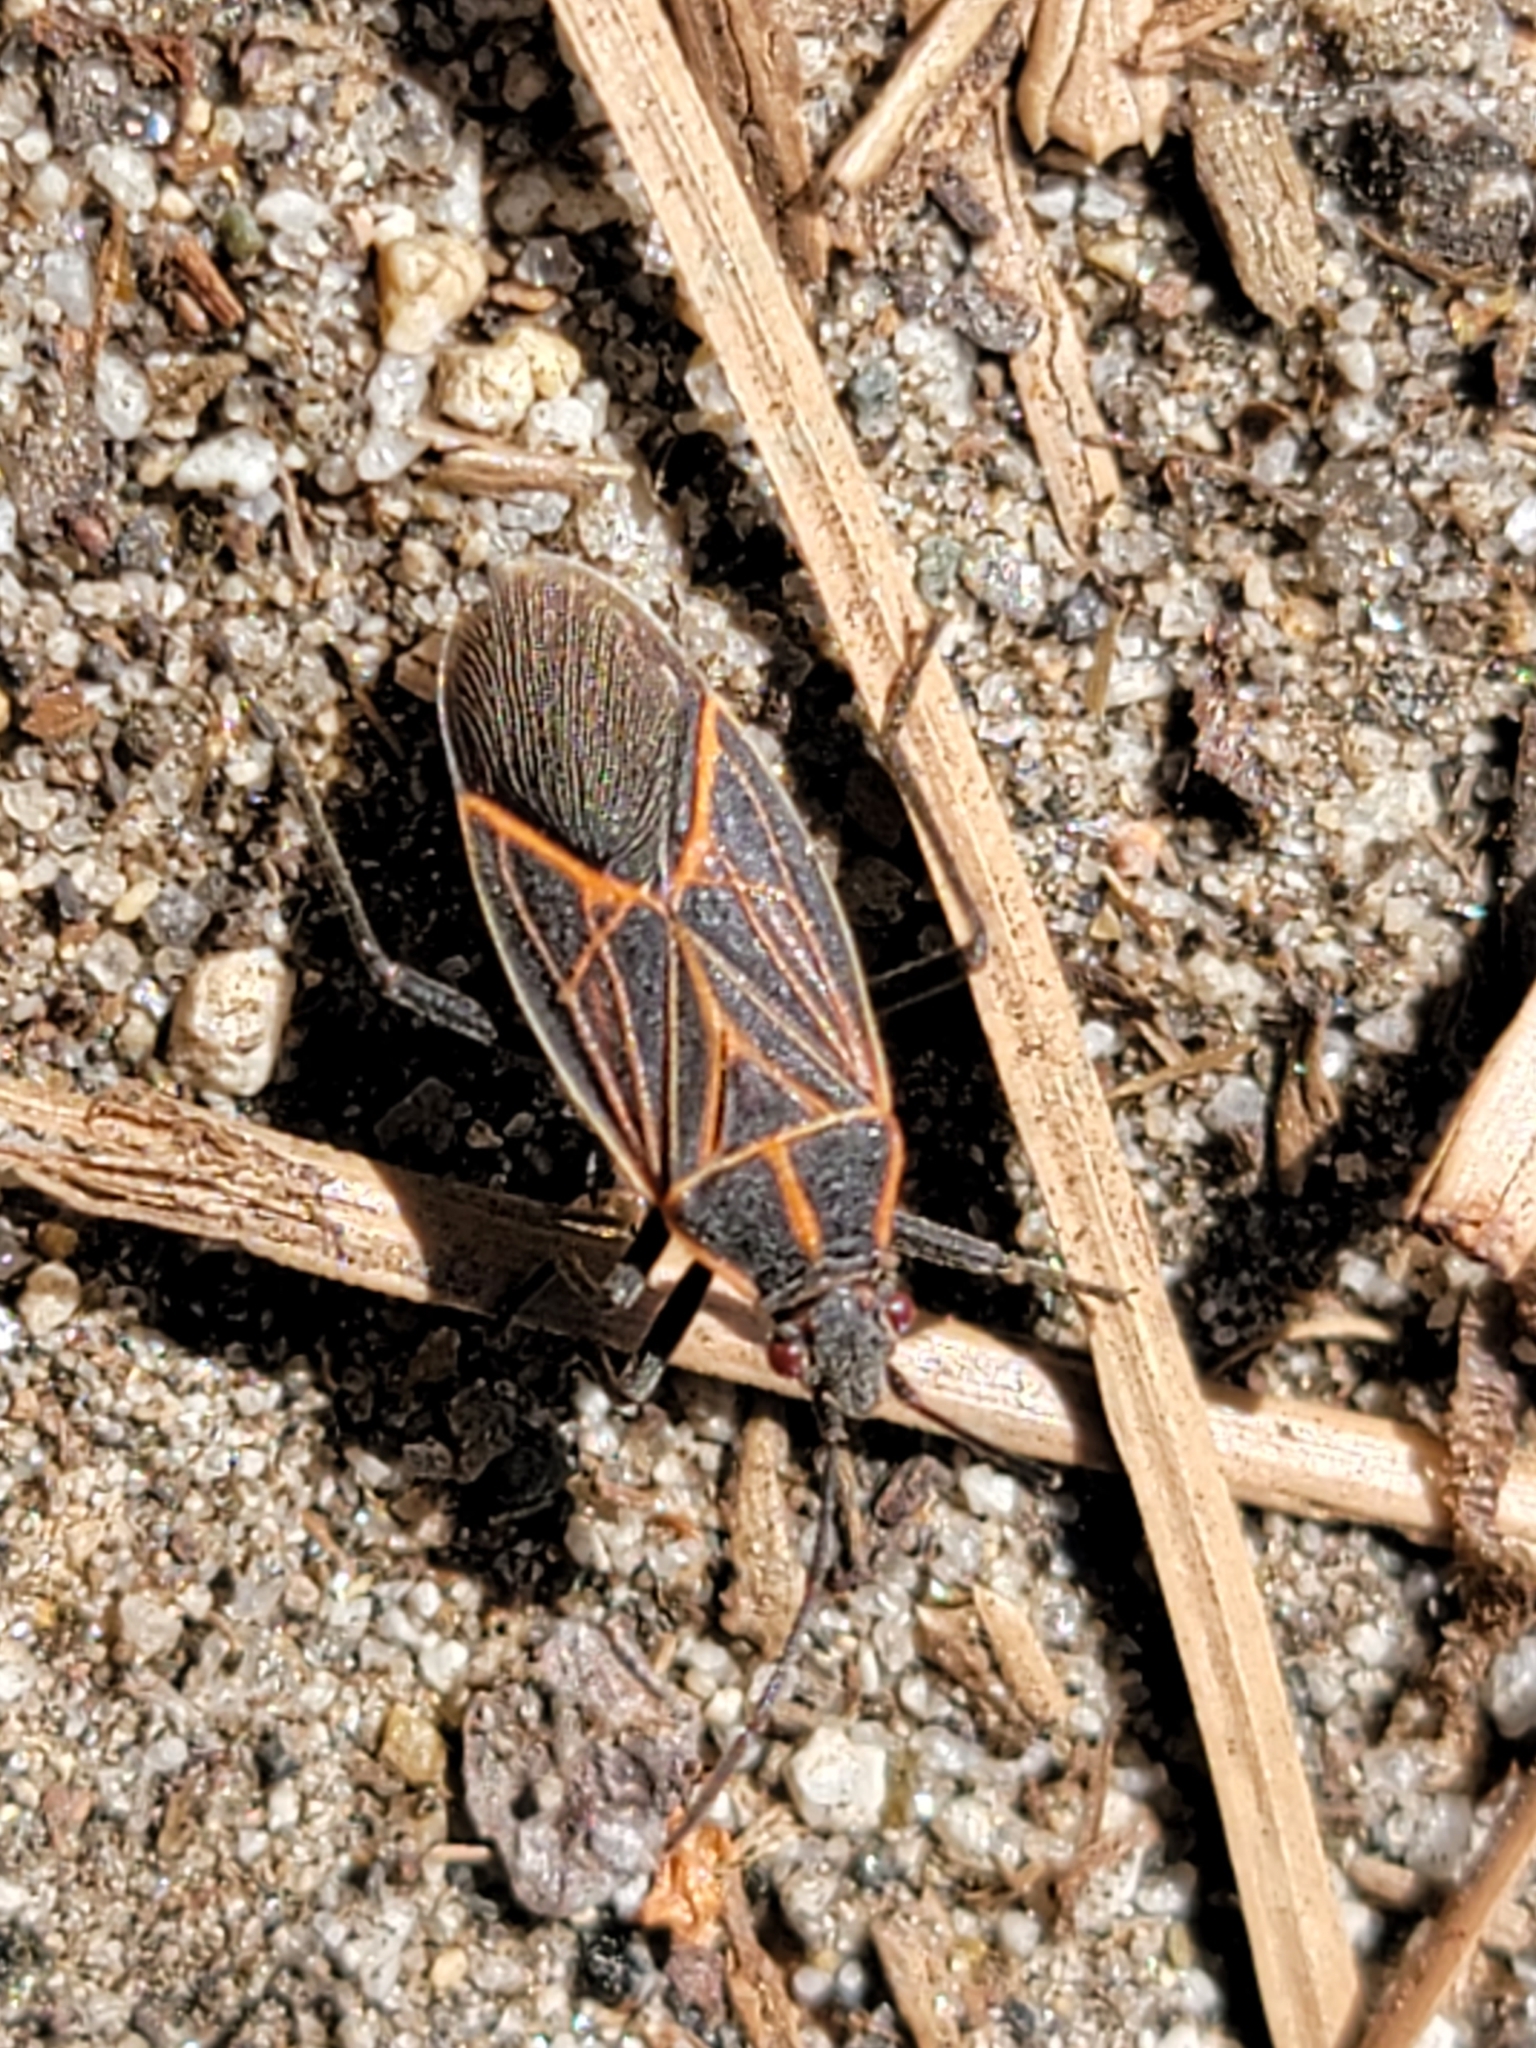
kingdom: Animalia
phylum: Arthropoda
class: Insecta
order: Hemiptera
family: Rhopalidae
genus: Boisea
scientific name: Boisea rubrolineata
